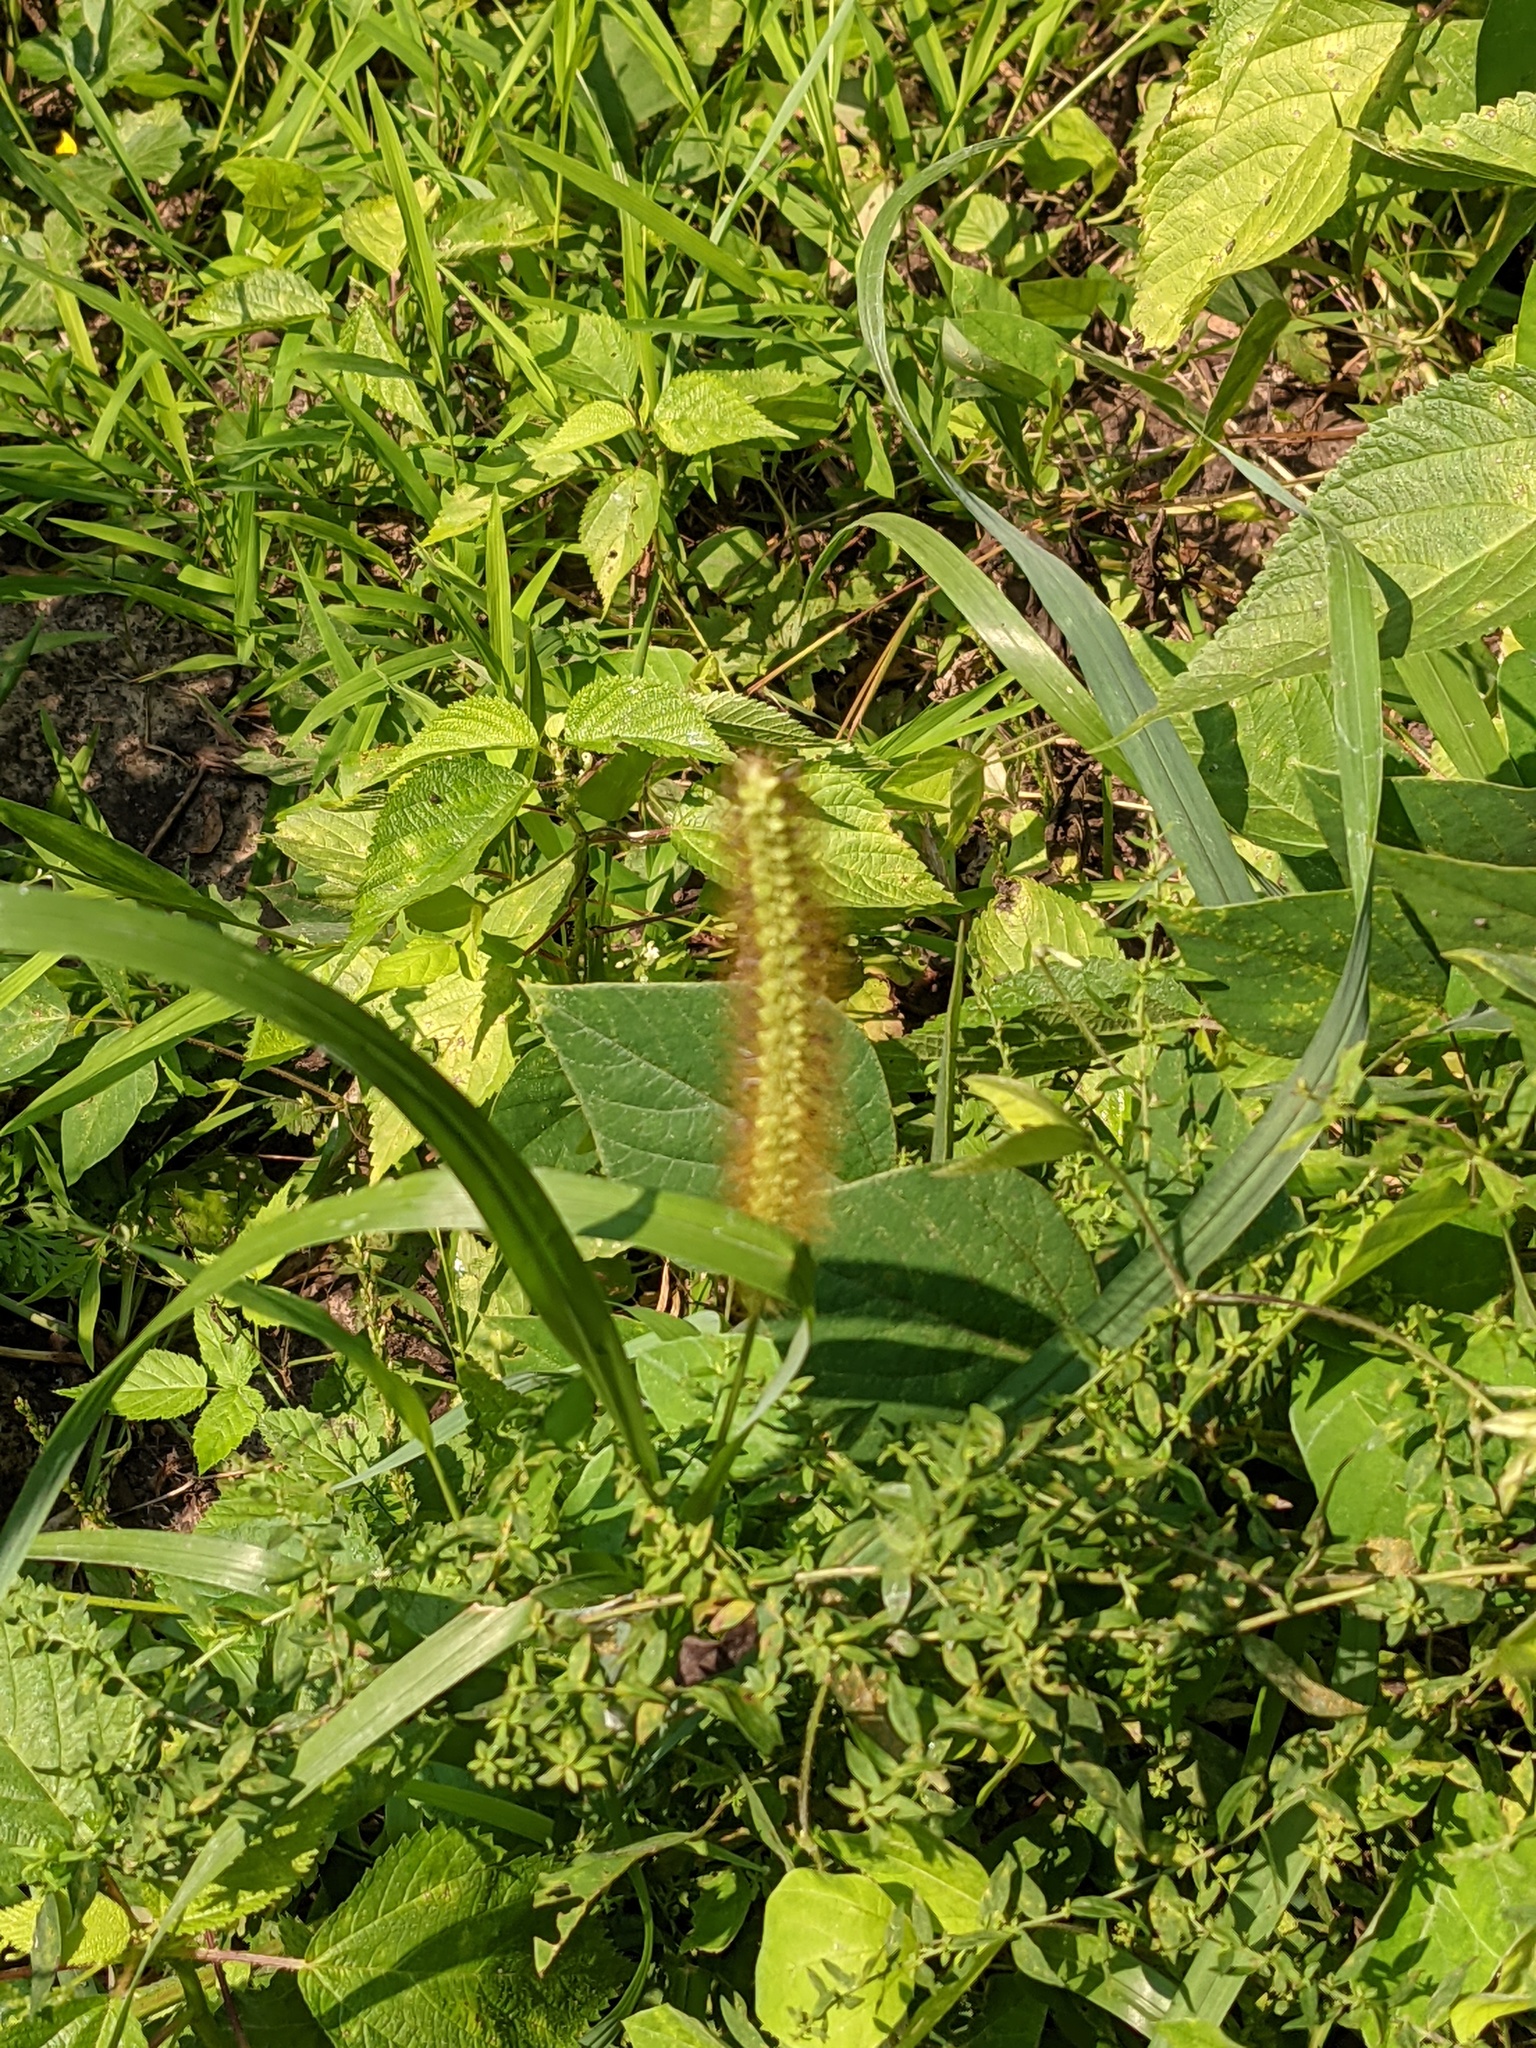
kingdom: Plantae
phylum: Tracheophyta
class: Liliopsida
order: Poales
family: Poaceae
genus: Setaria
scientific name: Setaria pumila
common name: Yellow bristle-grass
